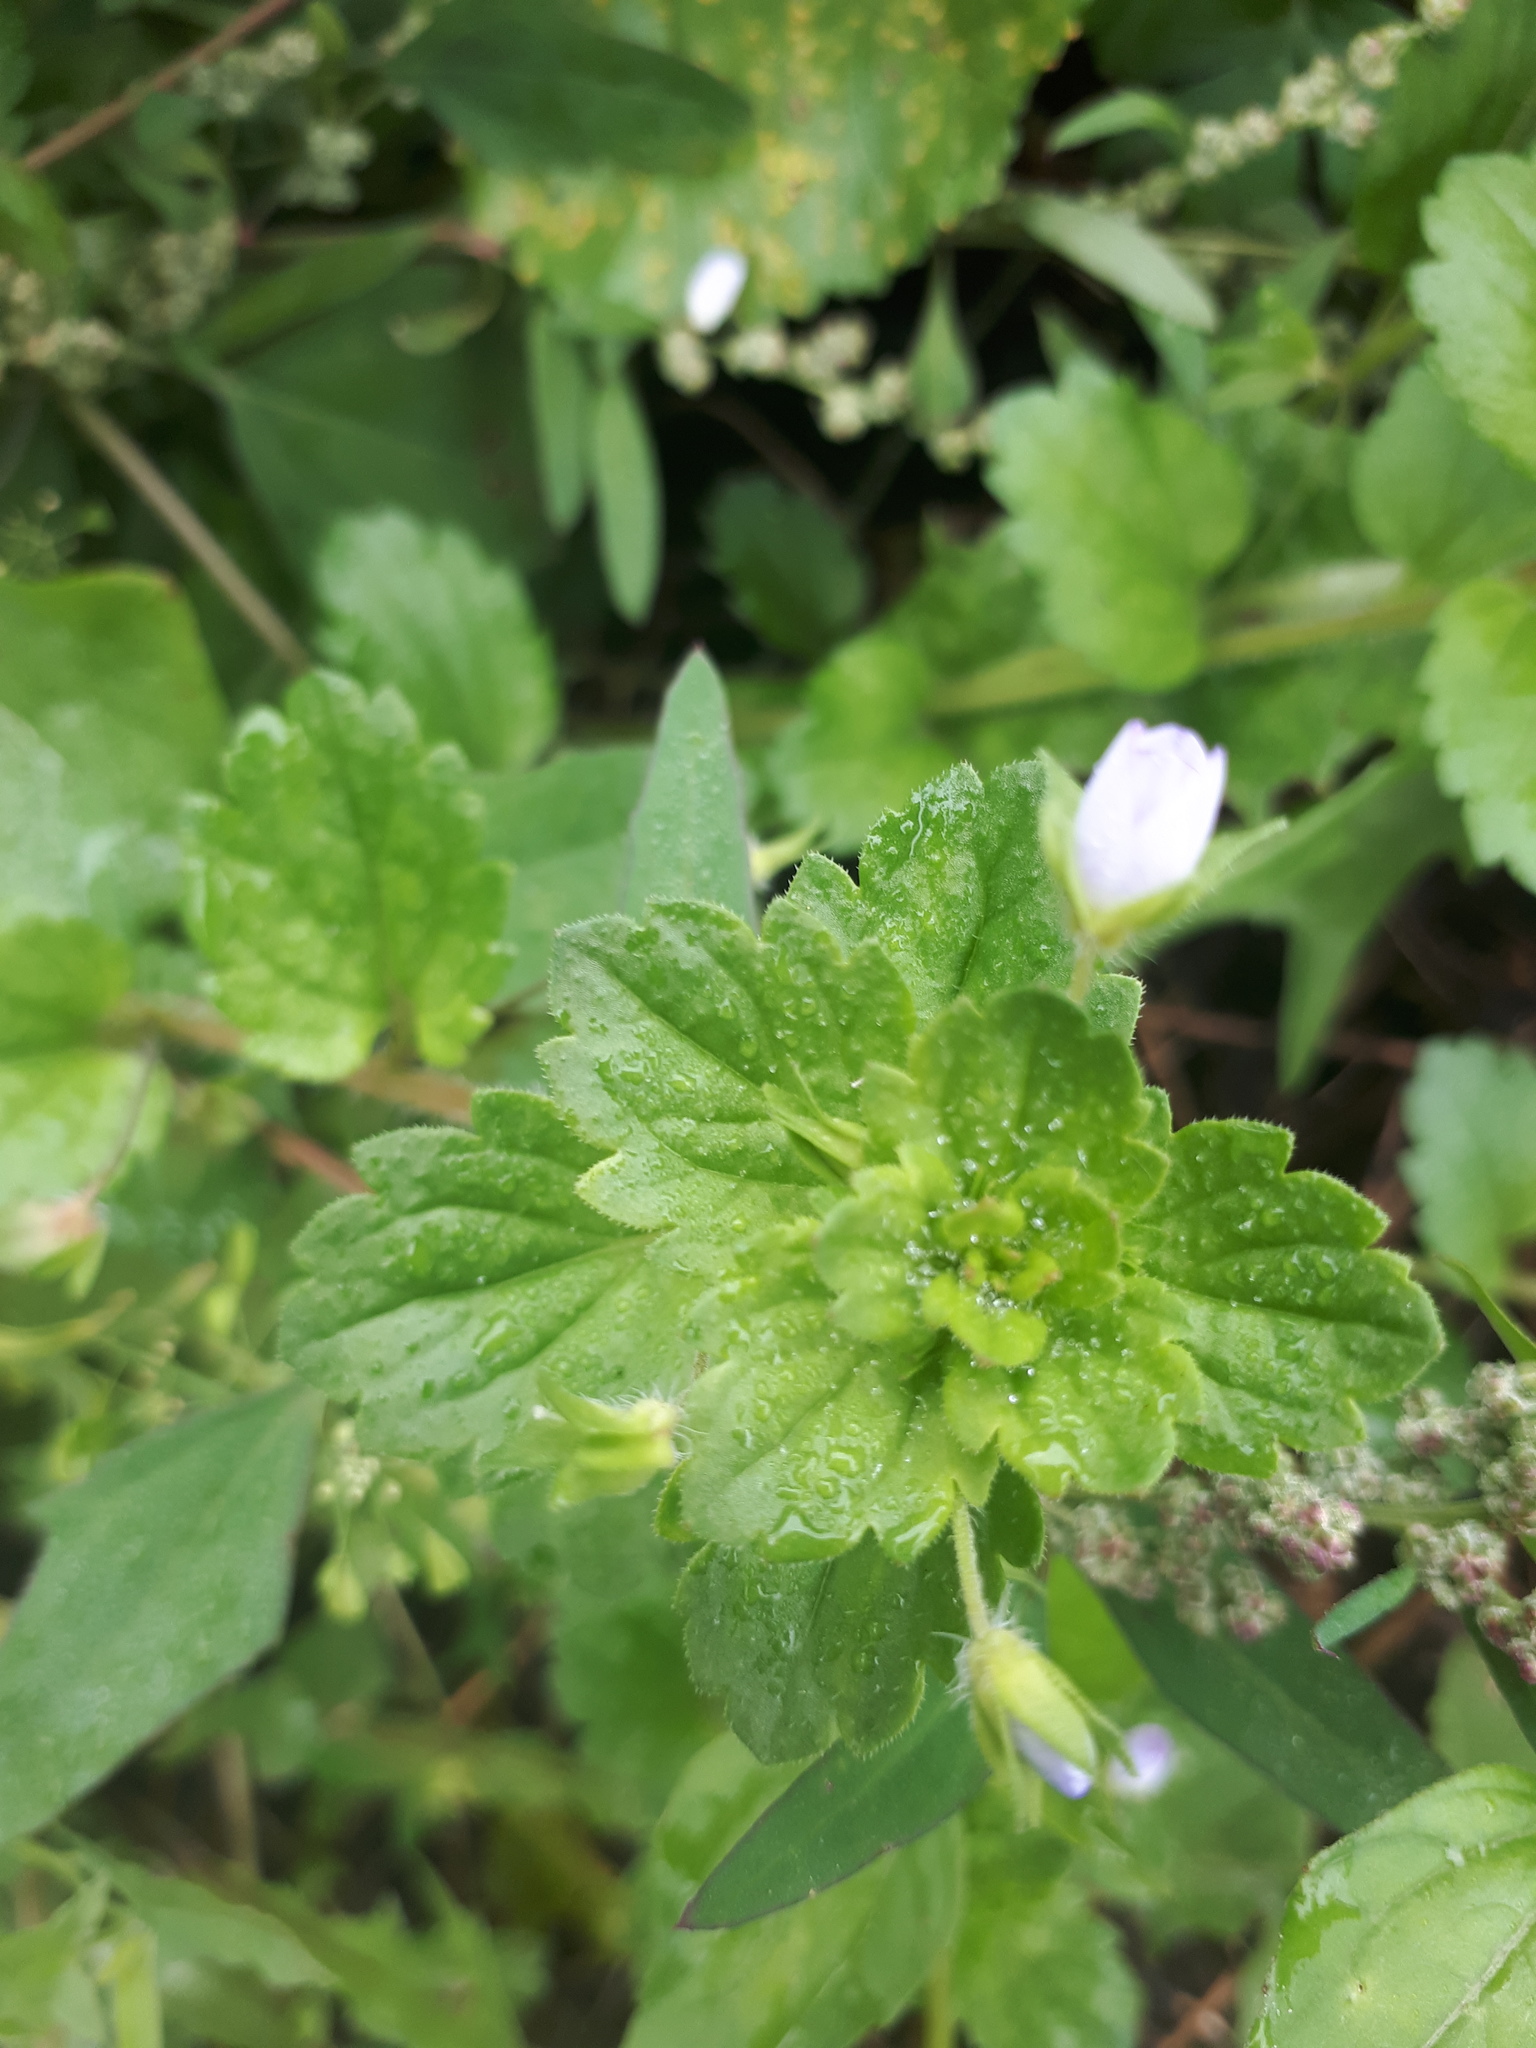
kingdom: Plantae
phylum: Tracheophyta
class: Magnoliopsida
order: Lamiales
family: Plantaginaceae
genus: Veronica
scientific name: Veronica persica
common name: Common field-speedwell
